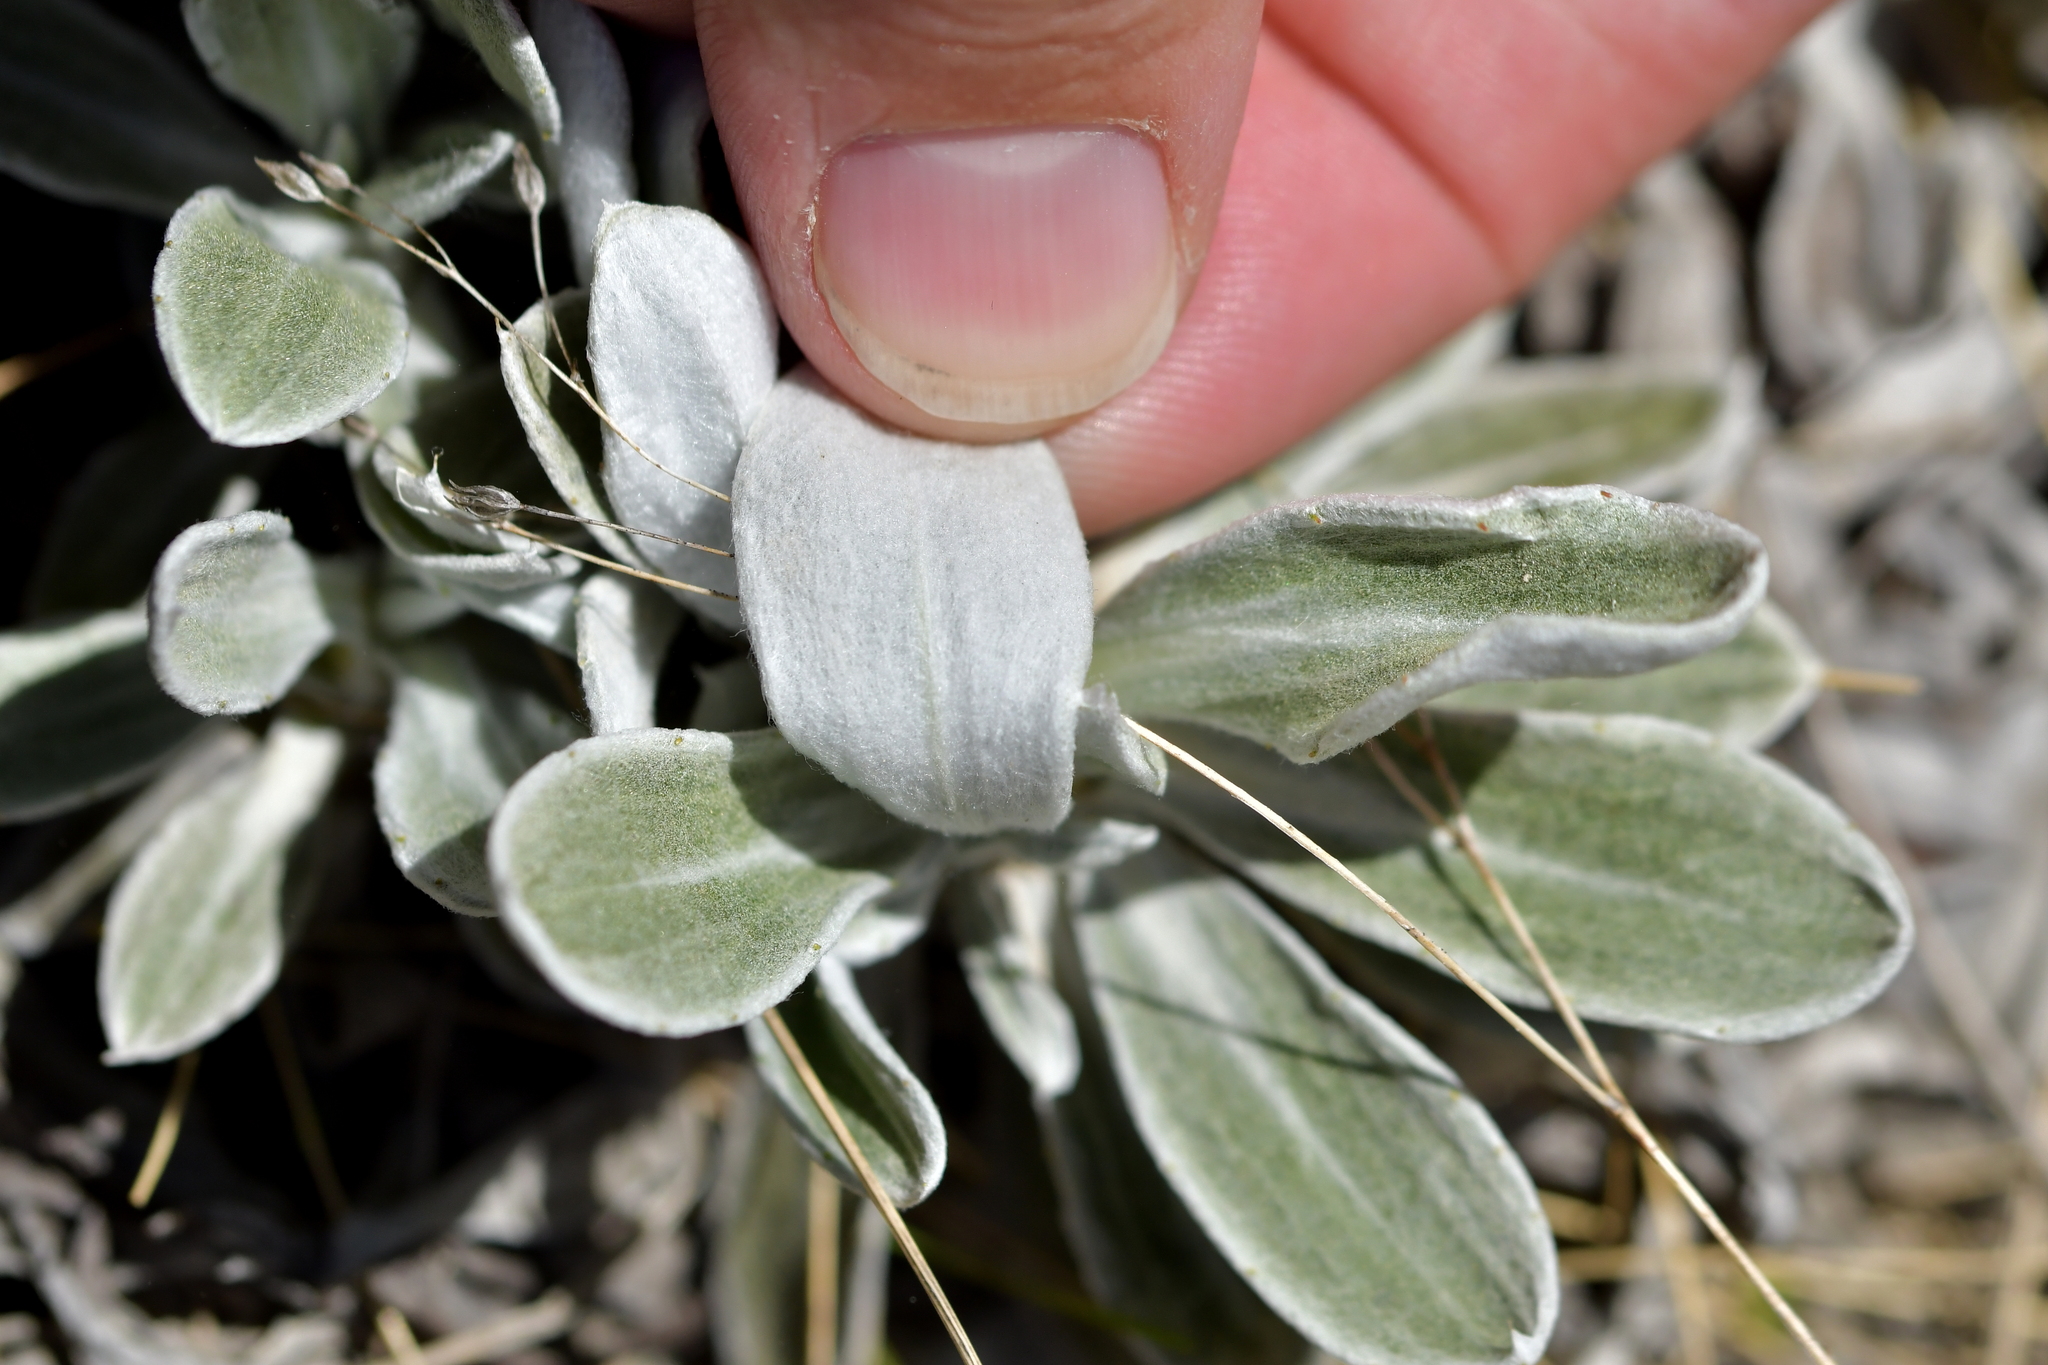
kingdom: Plantae
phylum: Tracheophyta
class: Magnoliopsida
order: Asterales
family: Asteraceae
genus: Celmisia
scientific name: Celmisia allanii
